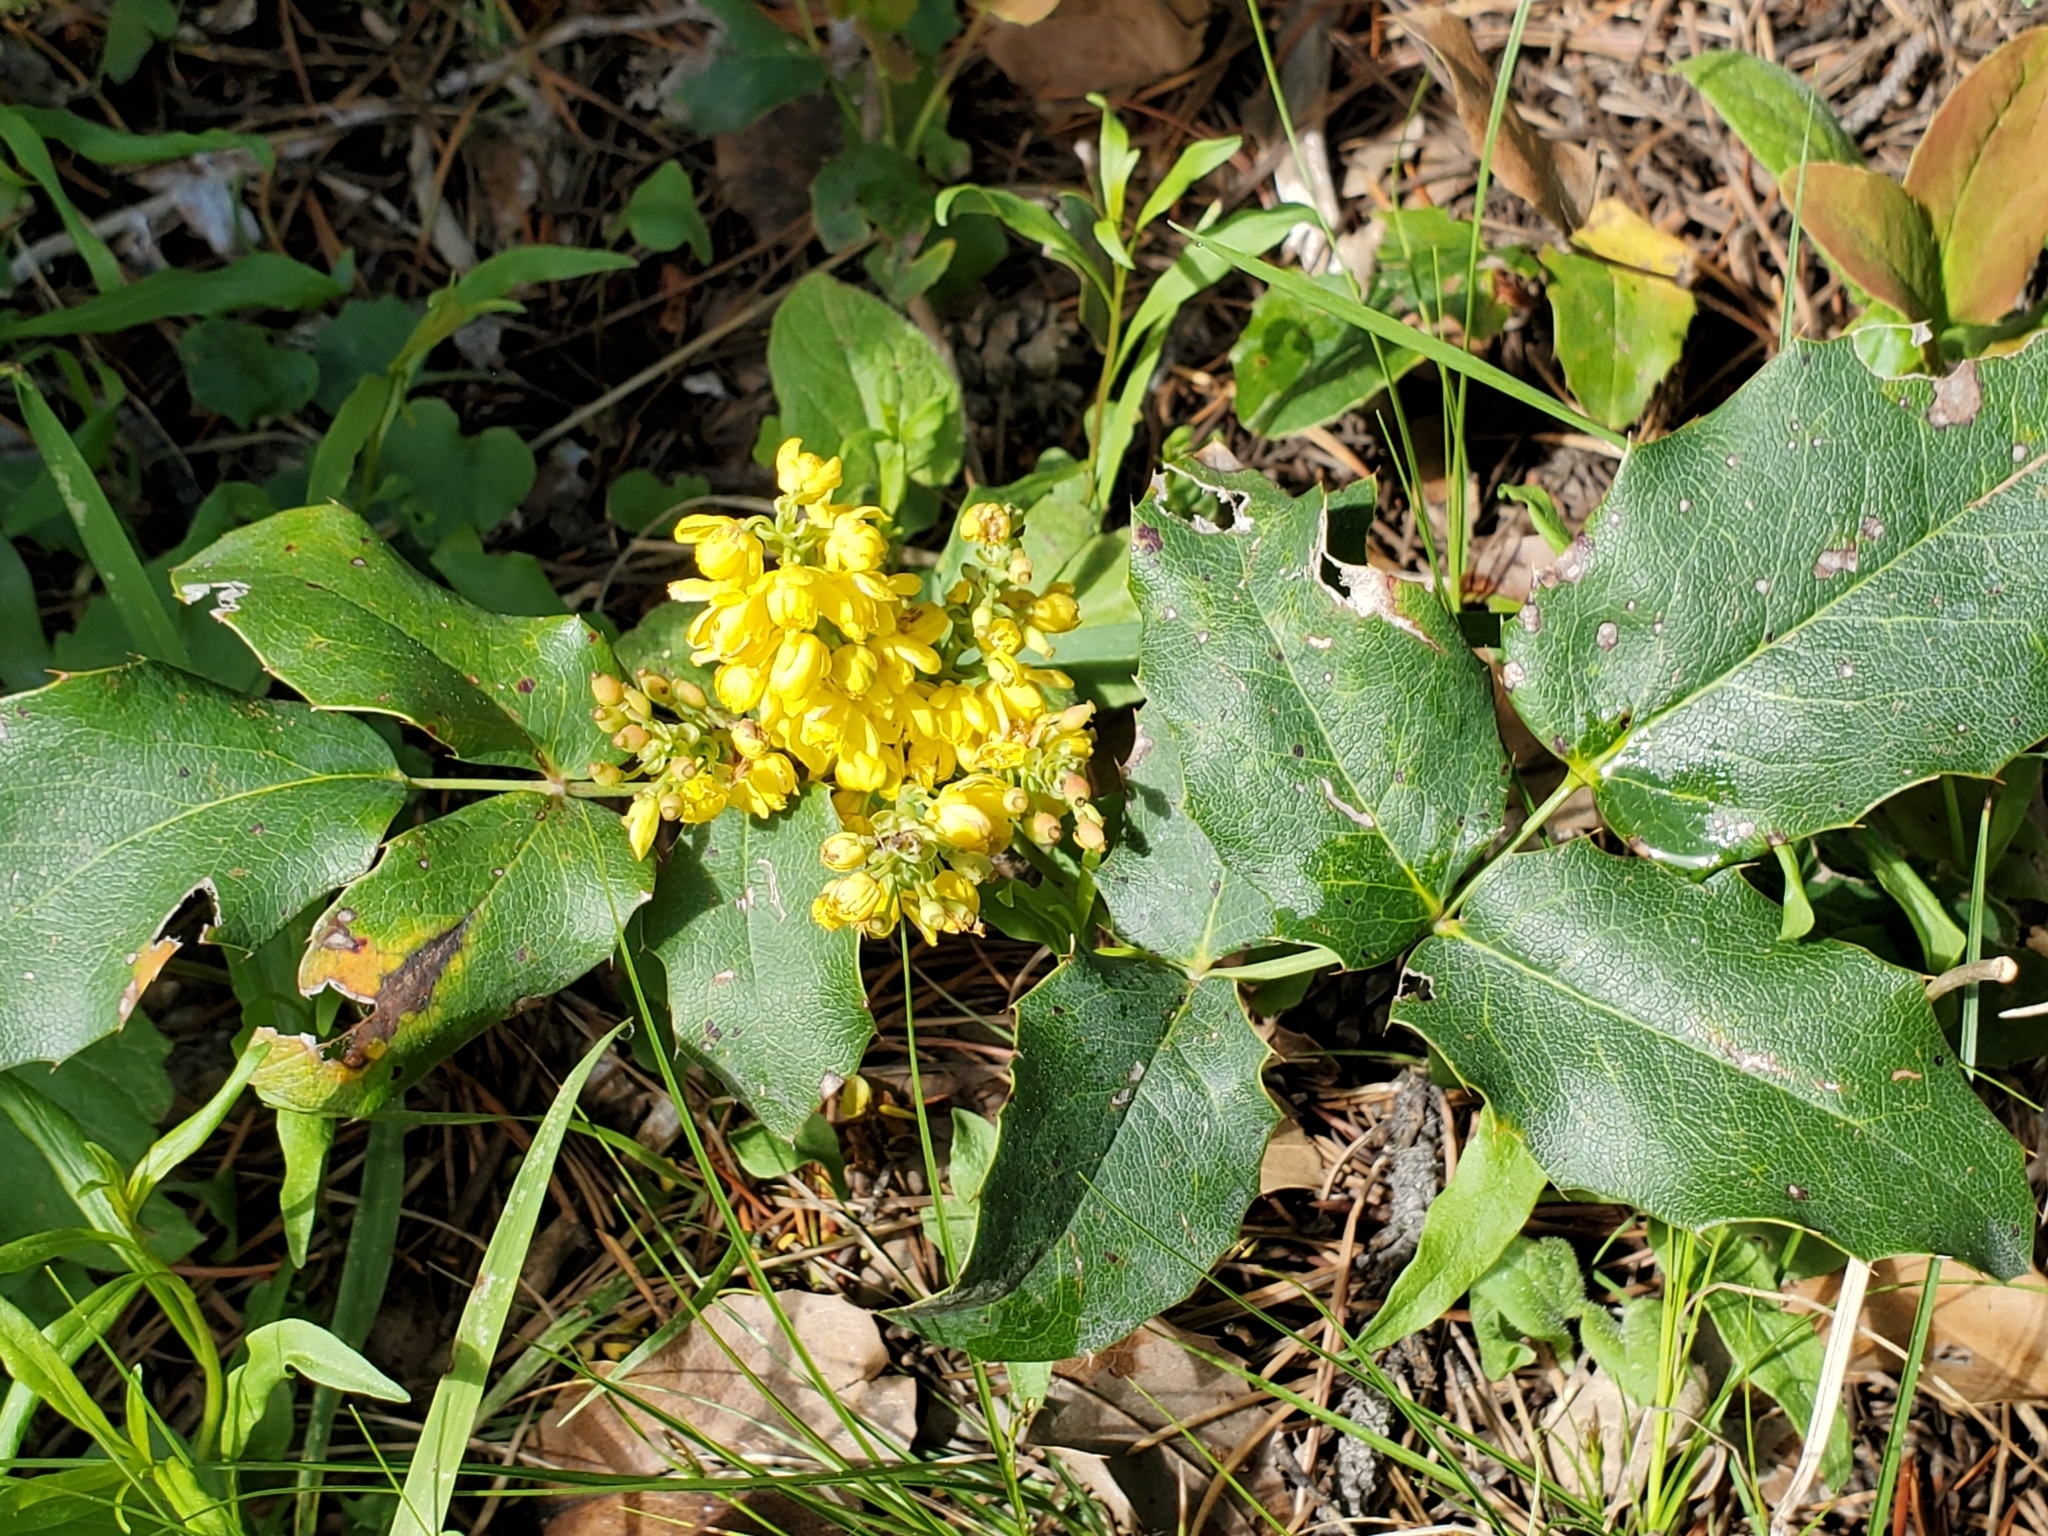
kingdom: Plantae
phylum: Tracheophyta
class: Magnoliopsida
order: Ranunculales
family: Berberidaceae
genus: Mahonia
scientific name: Mahonia repens
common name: Creeping oregon-grape
